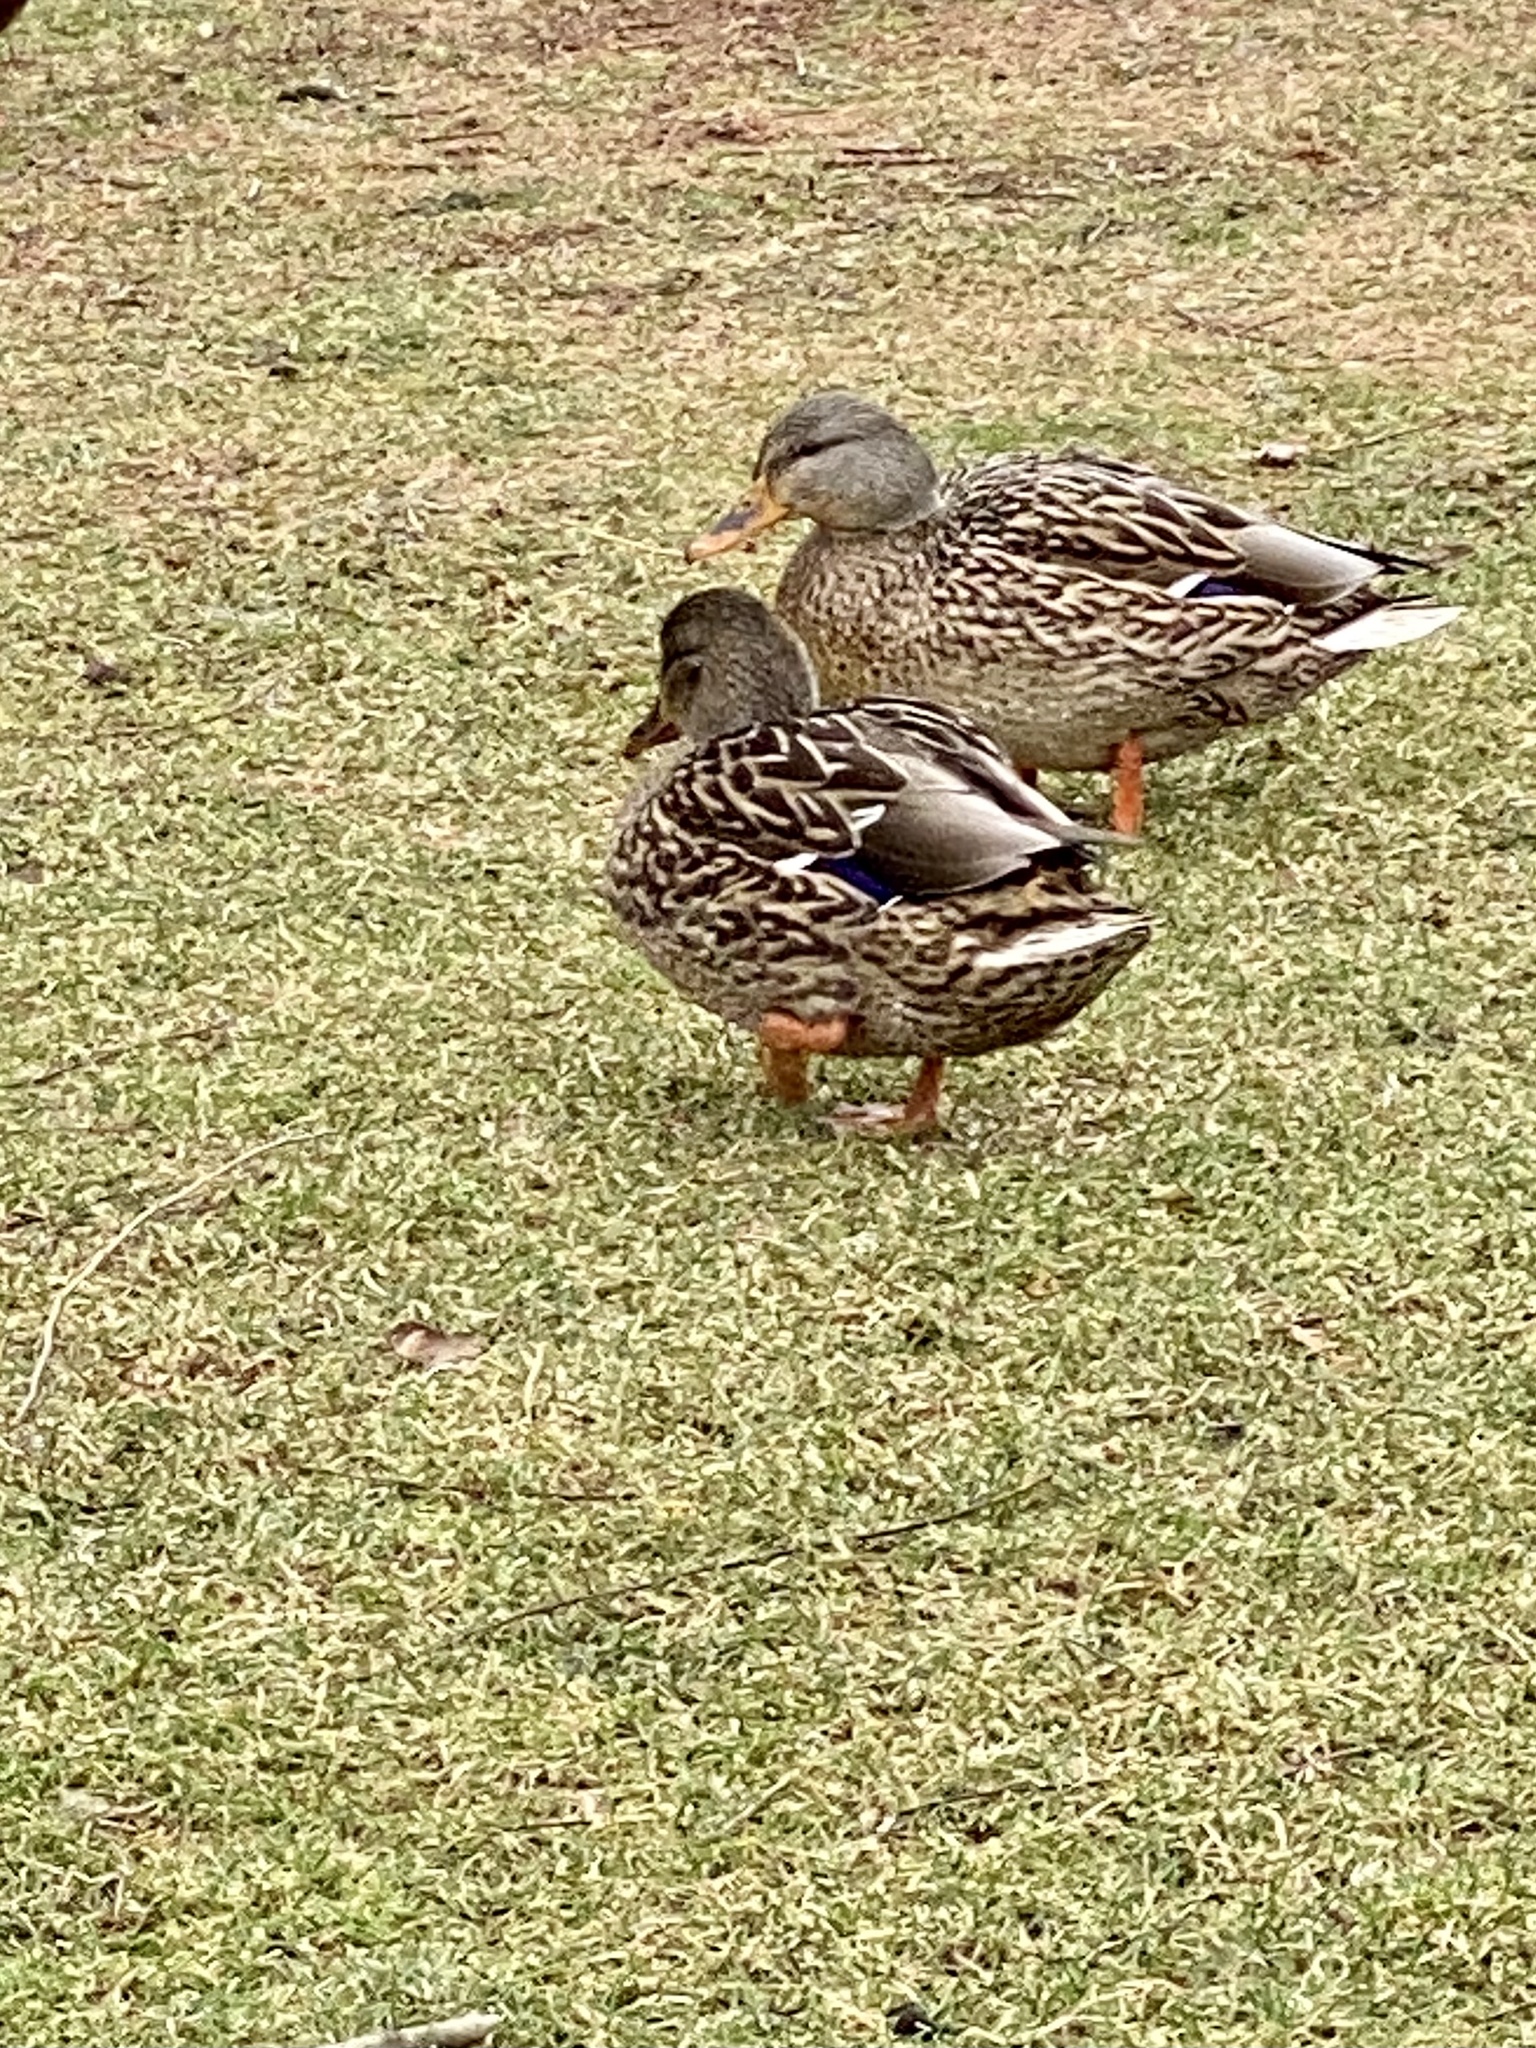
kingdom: Animalia
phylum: Chordata
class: Aves
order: Anseriformes
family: Anatidae
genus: Anas
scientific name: Anas platyrhynchos
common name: Mallard
